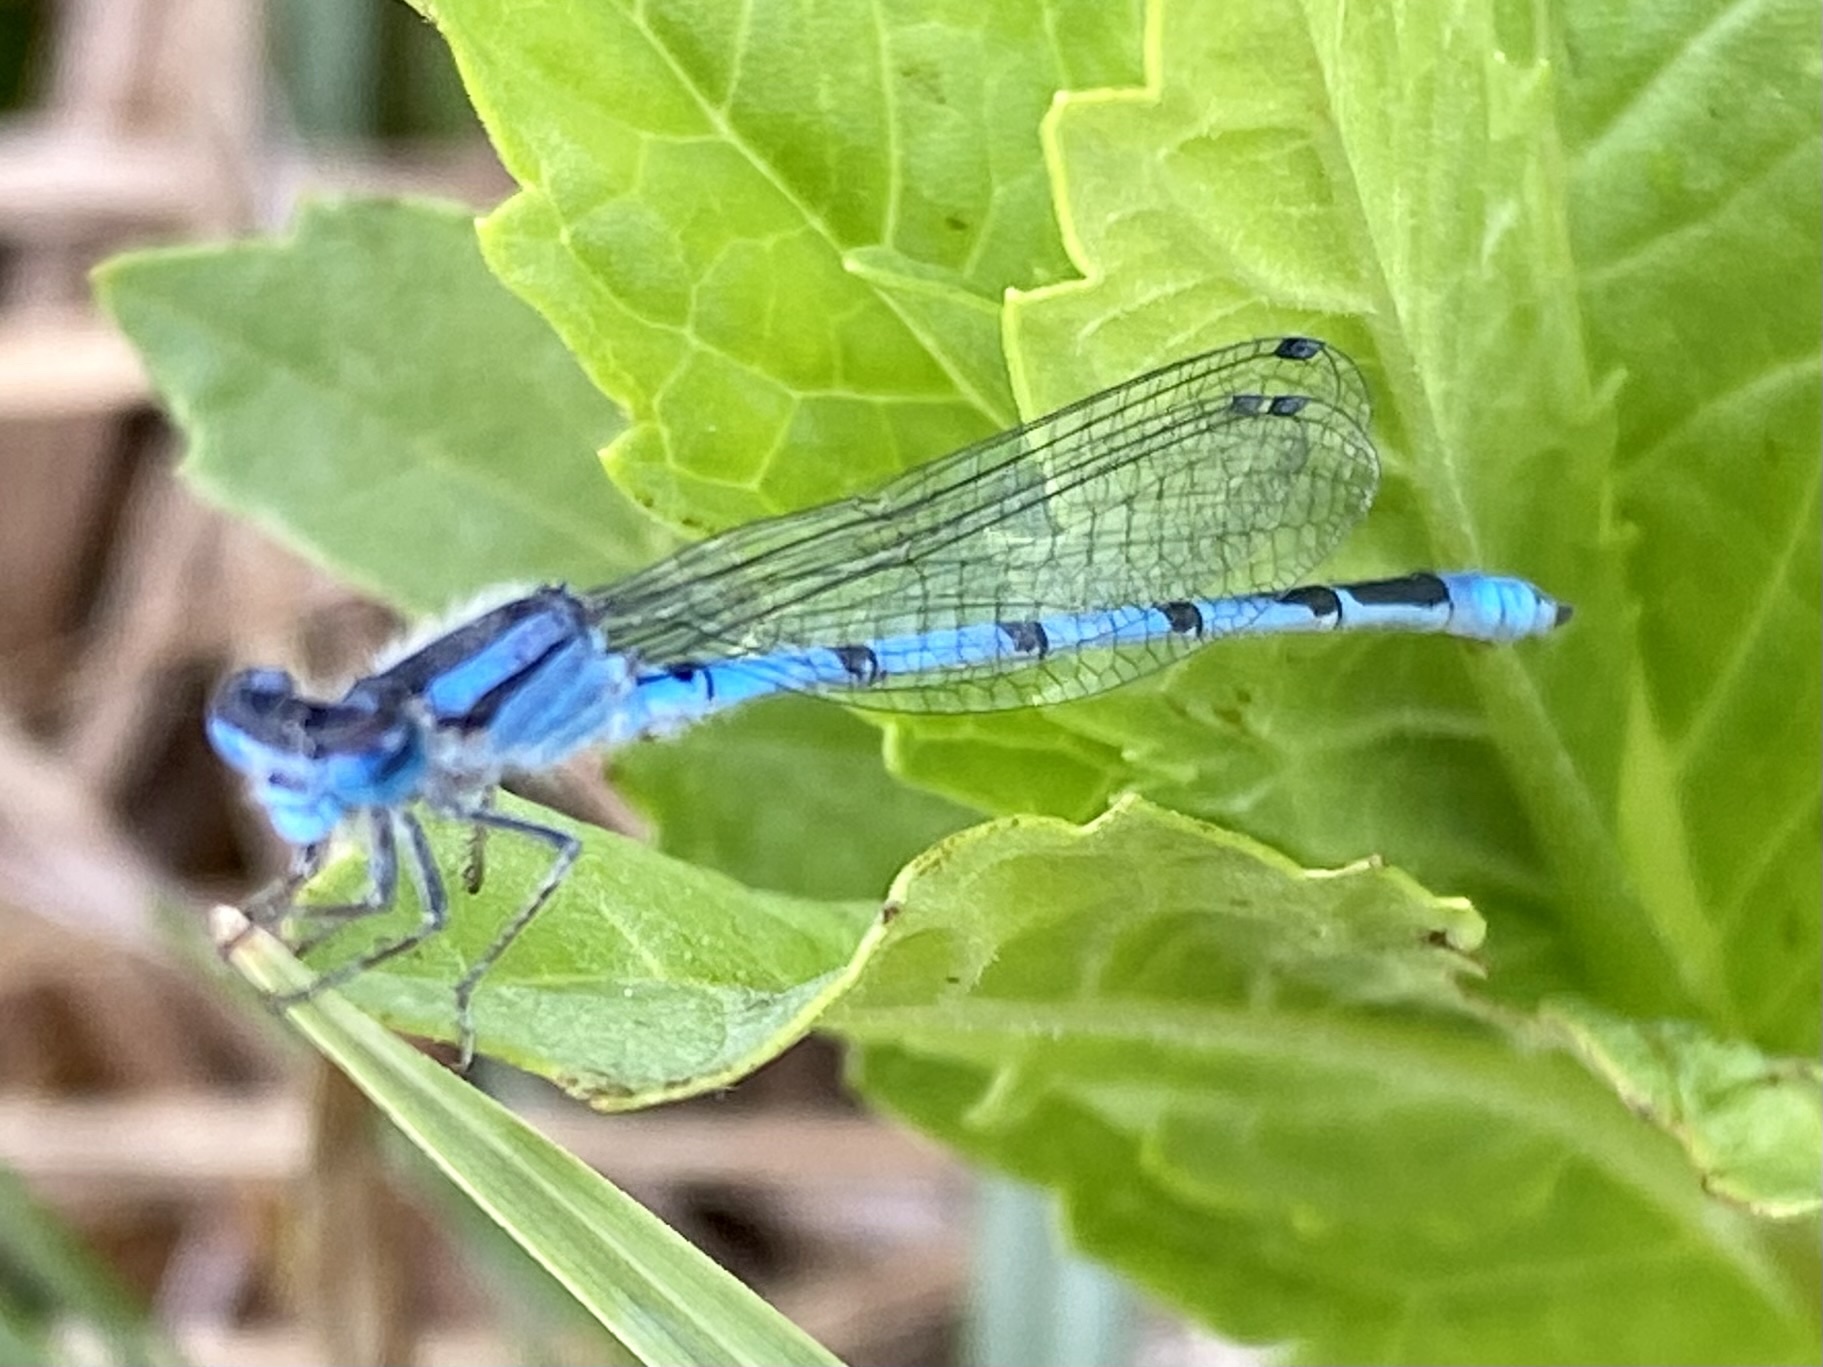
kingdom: Animalia
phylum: Arthropoda
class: Insecta
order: Odonata
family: Coenagrionidae
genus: Enallagma
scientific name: Enallagma civile
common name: Damselfly
